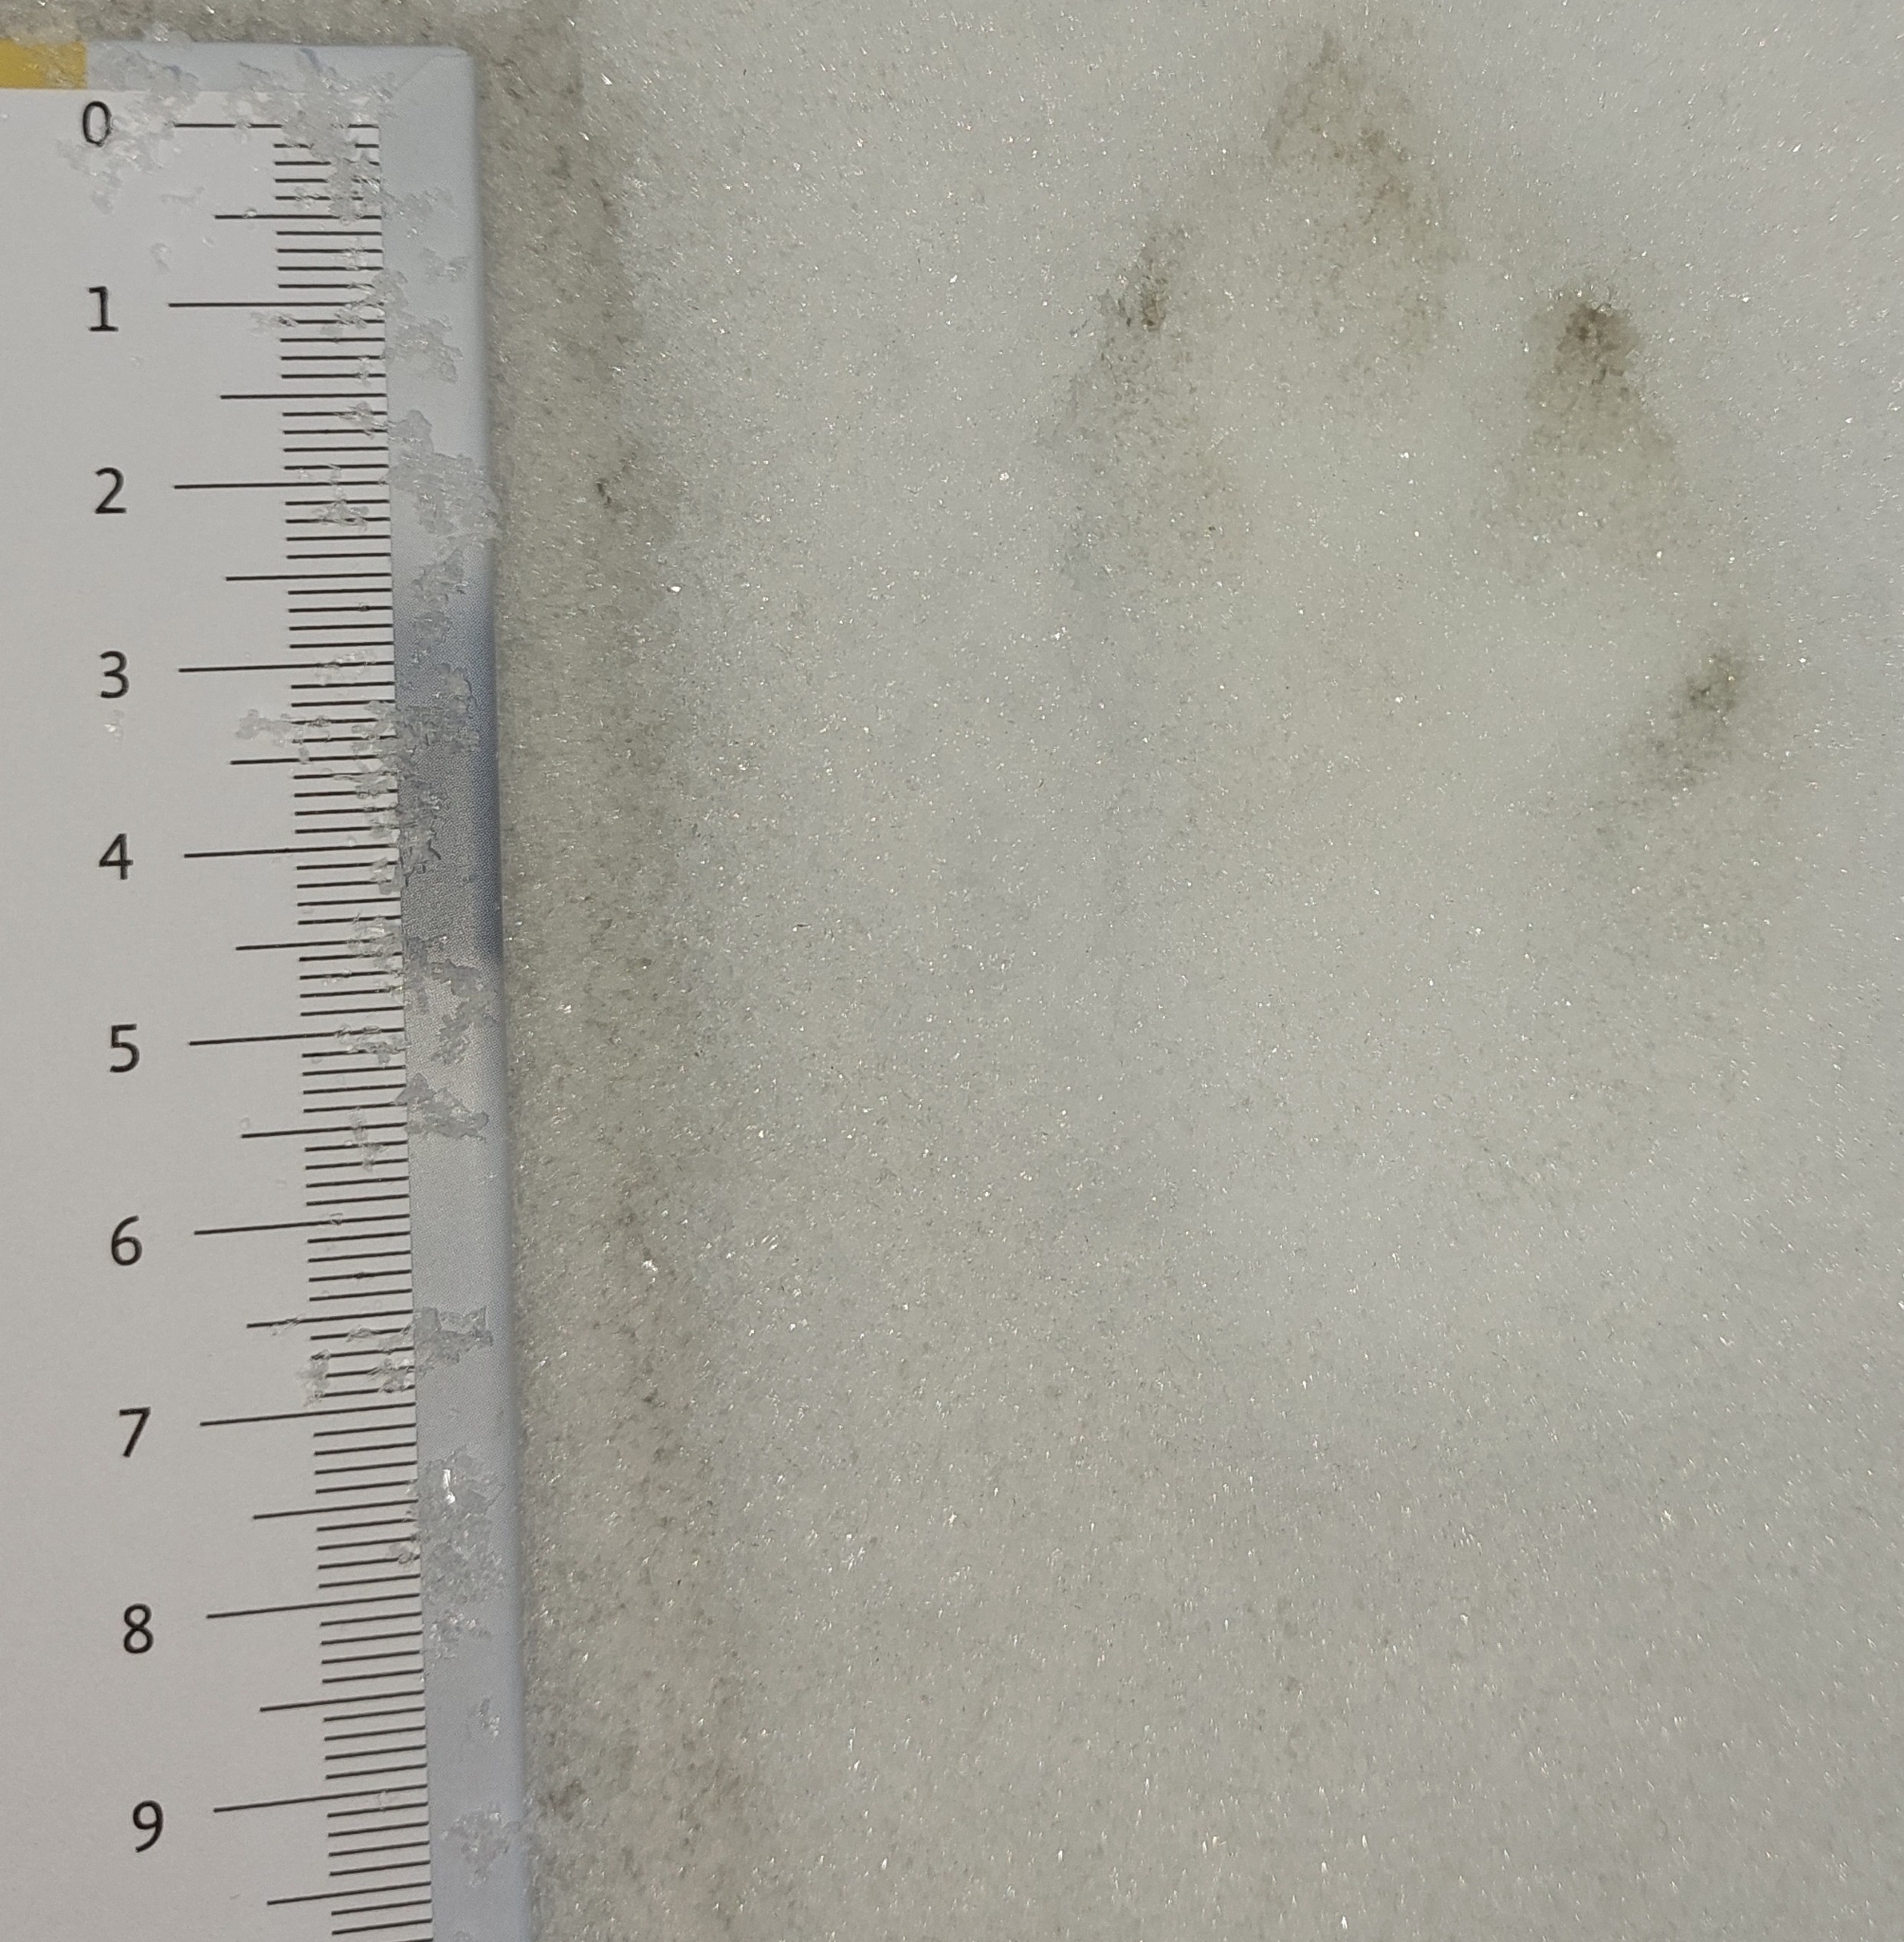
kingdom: Animalia
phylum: Chordata
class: Mammalia
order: Lagomorpha
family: Leporidae
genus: Lepus
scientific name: Lepus europaeus
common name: European hare
